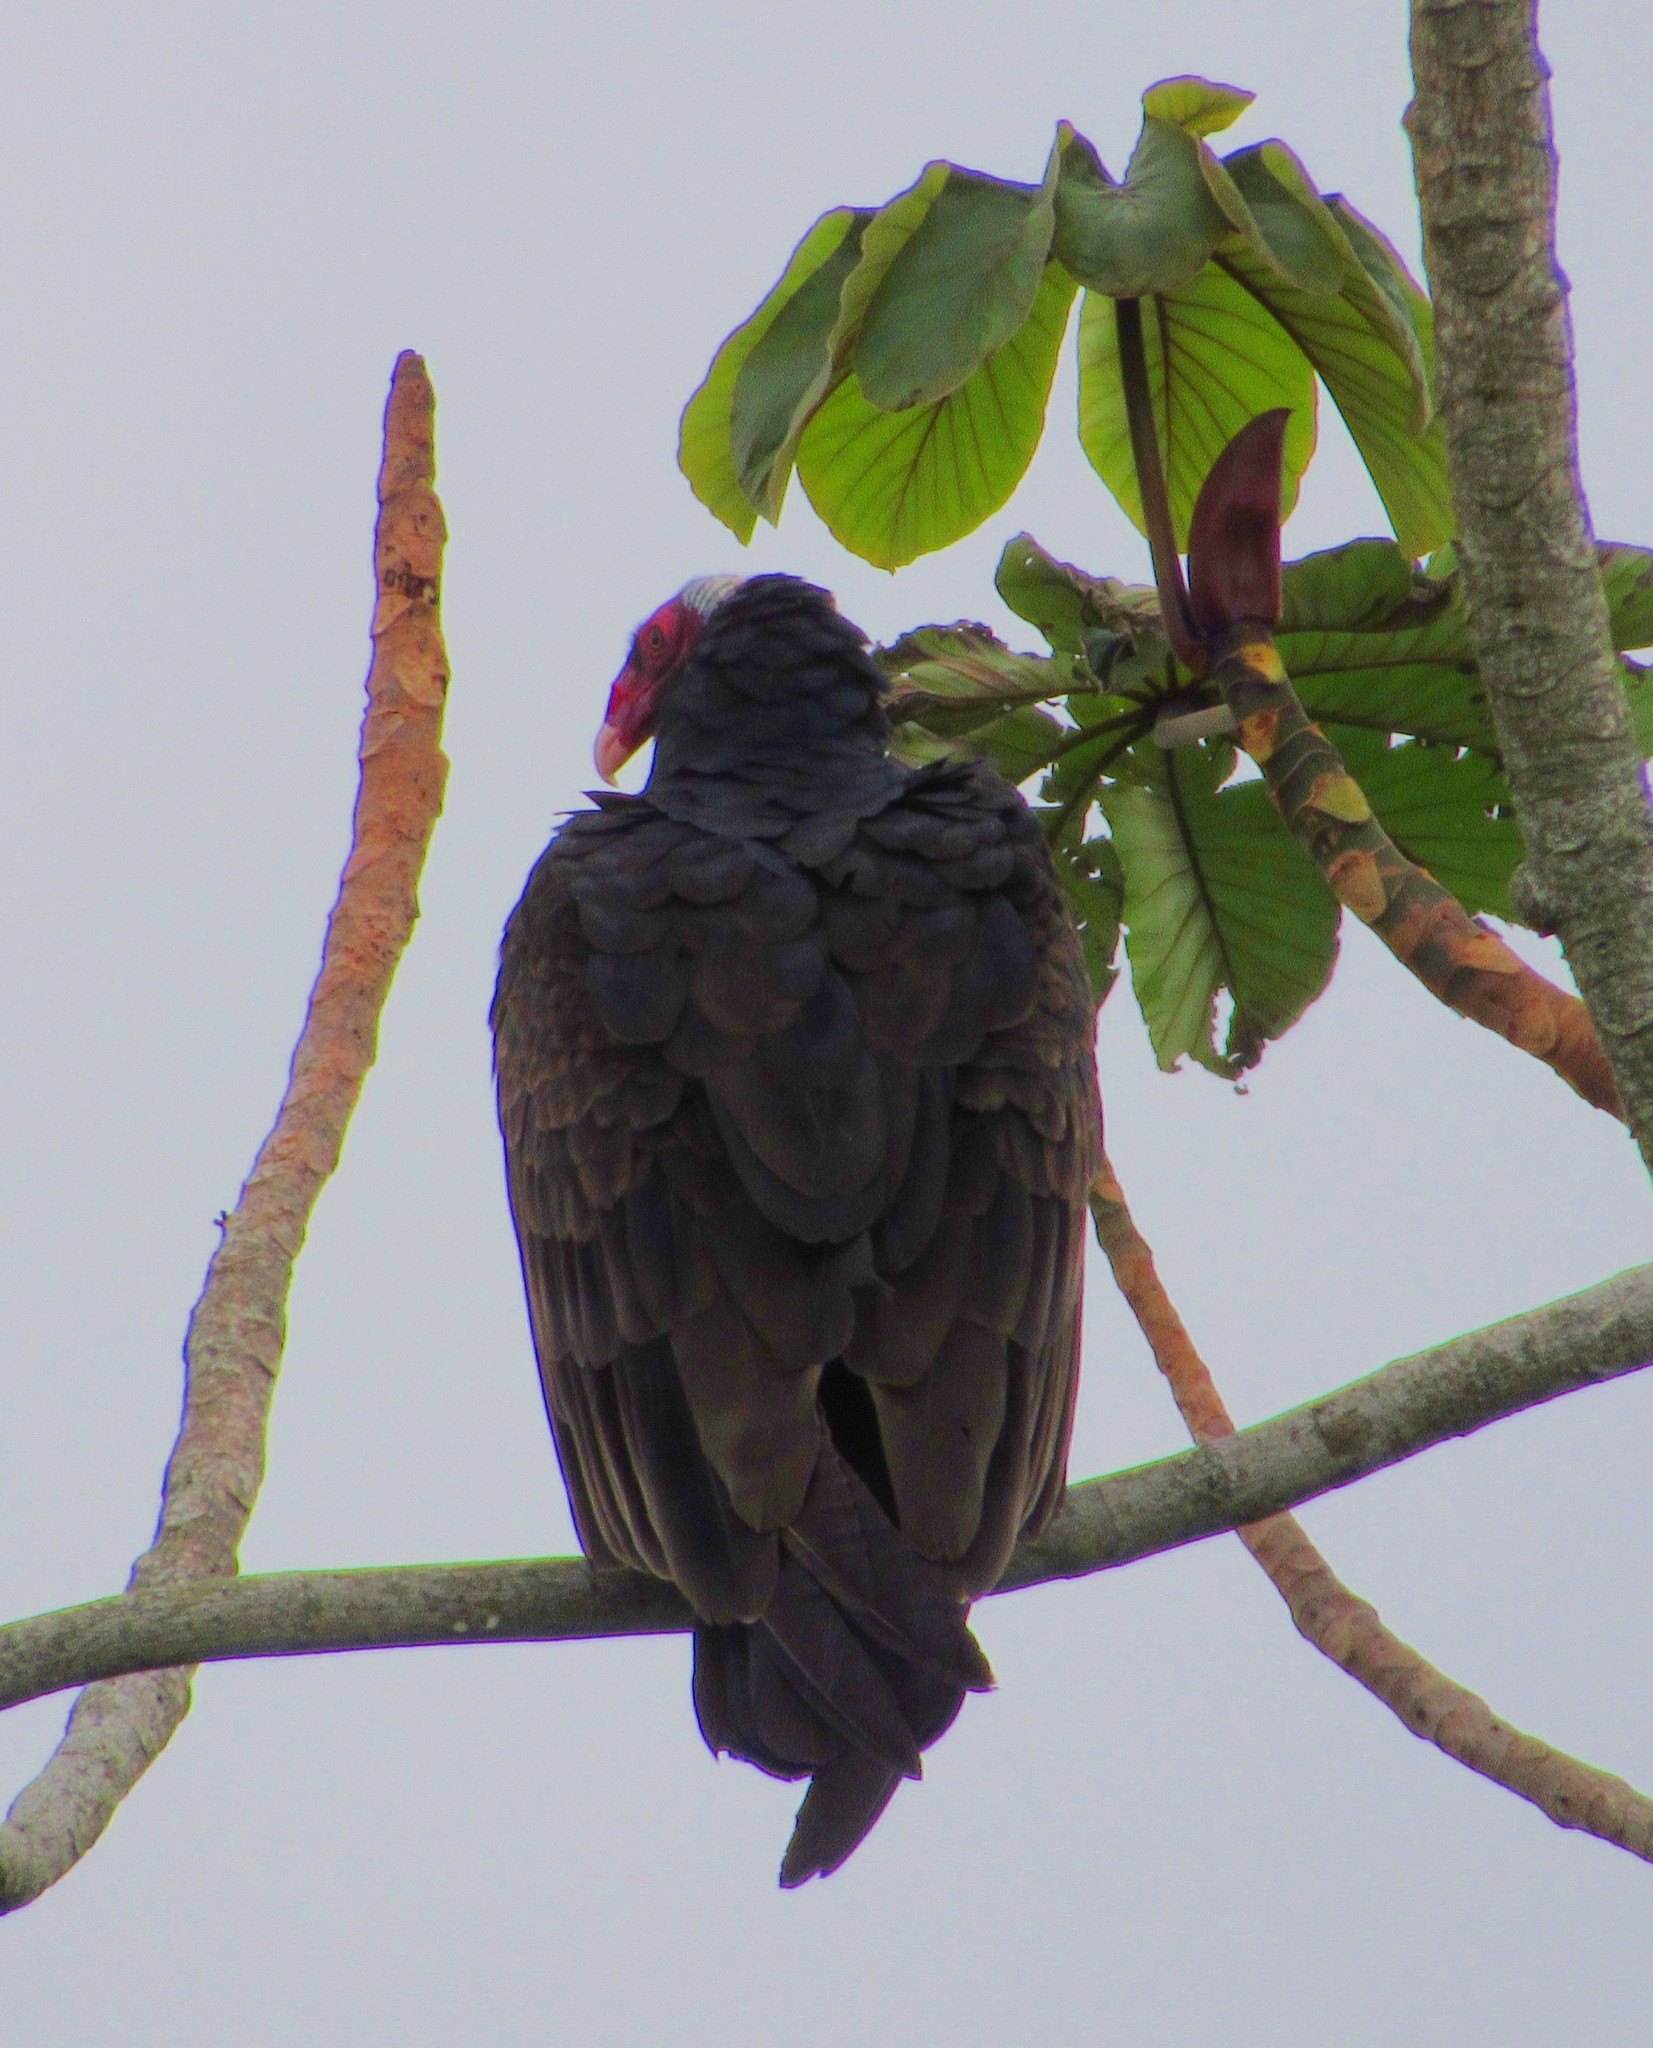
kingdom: Animalia
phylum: Chordata
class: Aves
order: Accipitriformes
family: Cathartidae
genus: Cathartes
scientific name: Cathartes aura
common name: Turkey vulture
